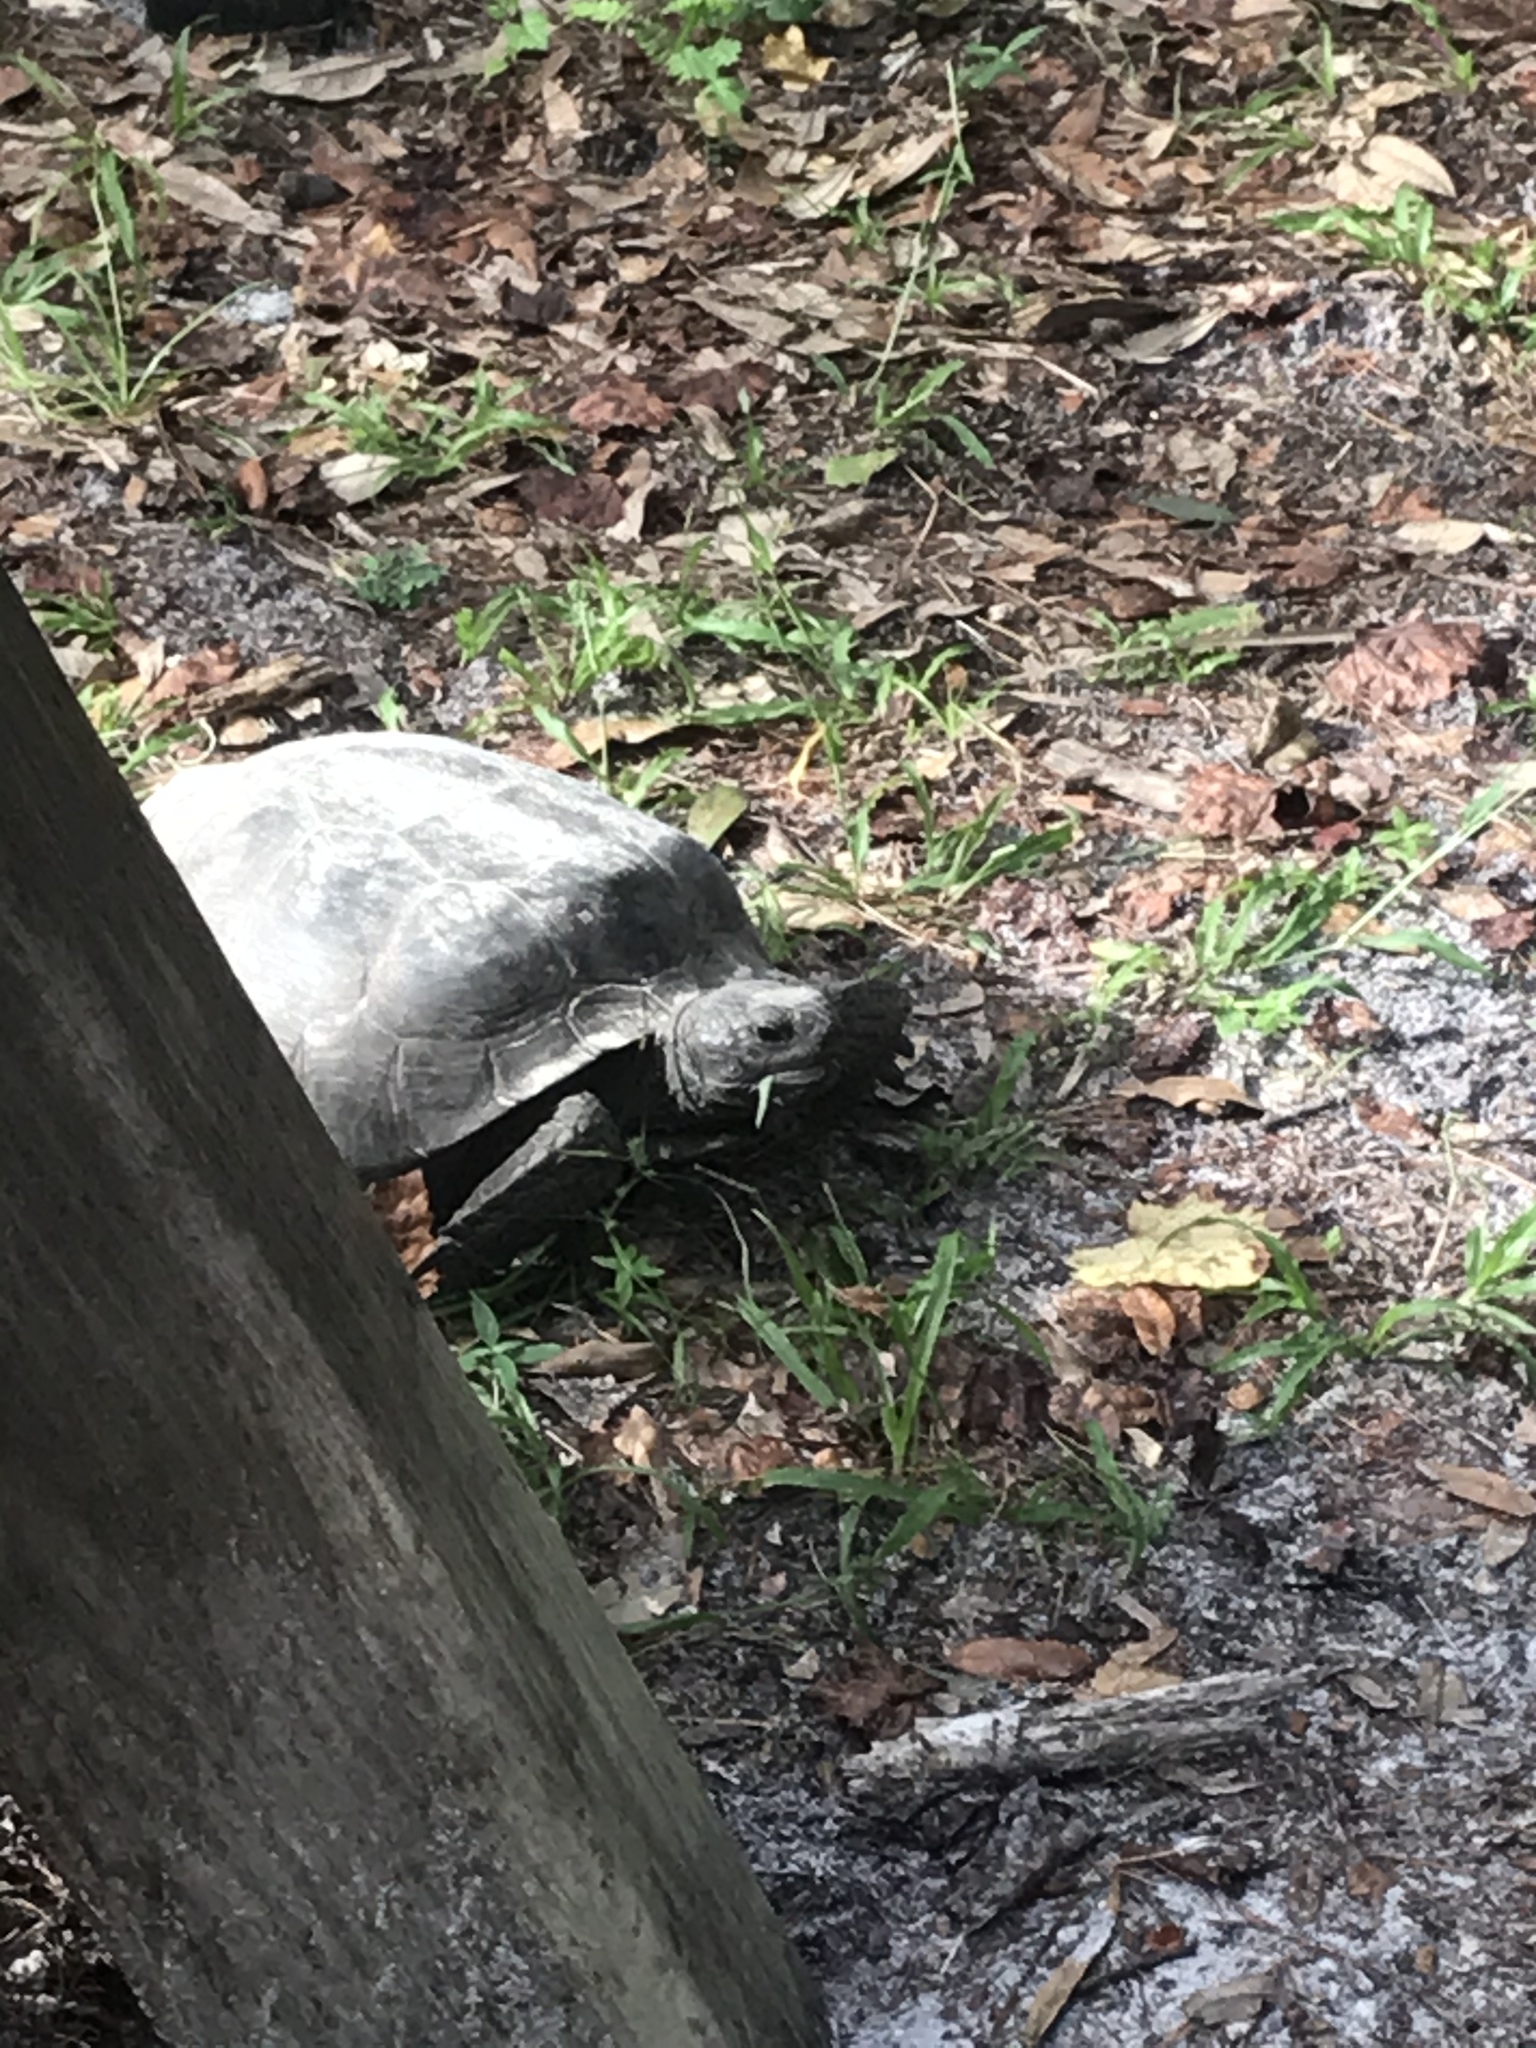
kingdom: Animalia
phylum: Chordata
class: Testudines
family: Testudinidae
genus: Gopherus
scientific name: Gopherus polyphemus
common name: Florida gopher tortoise
